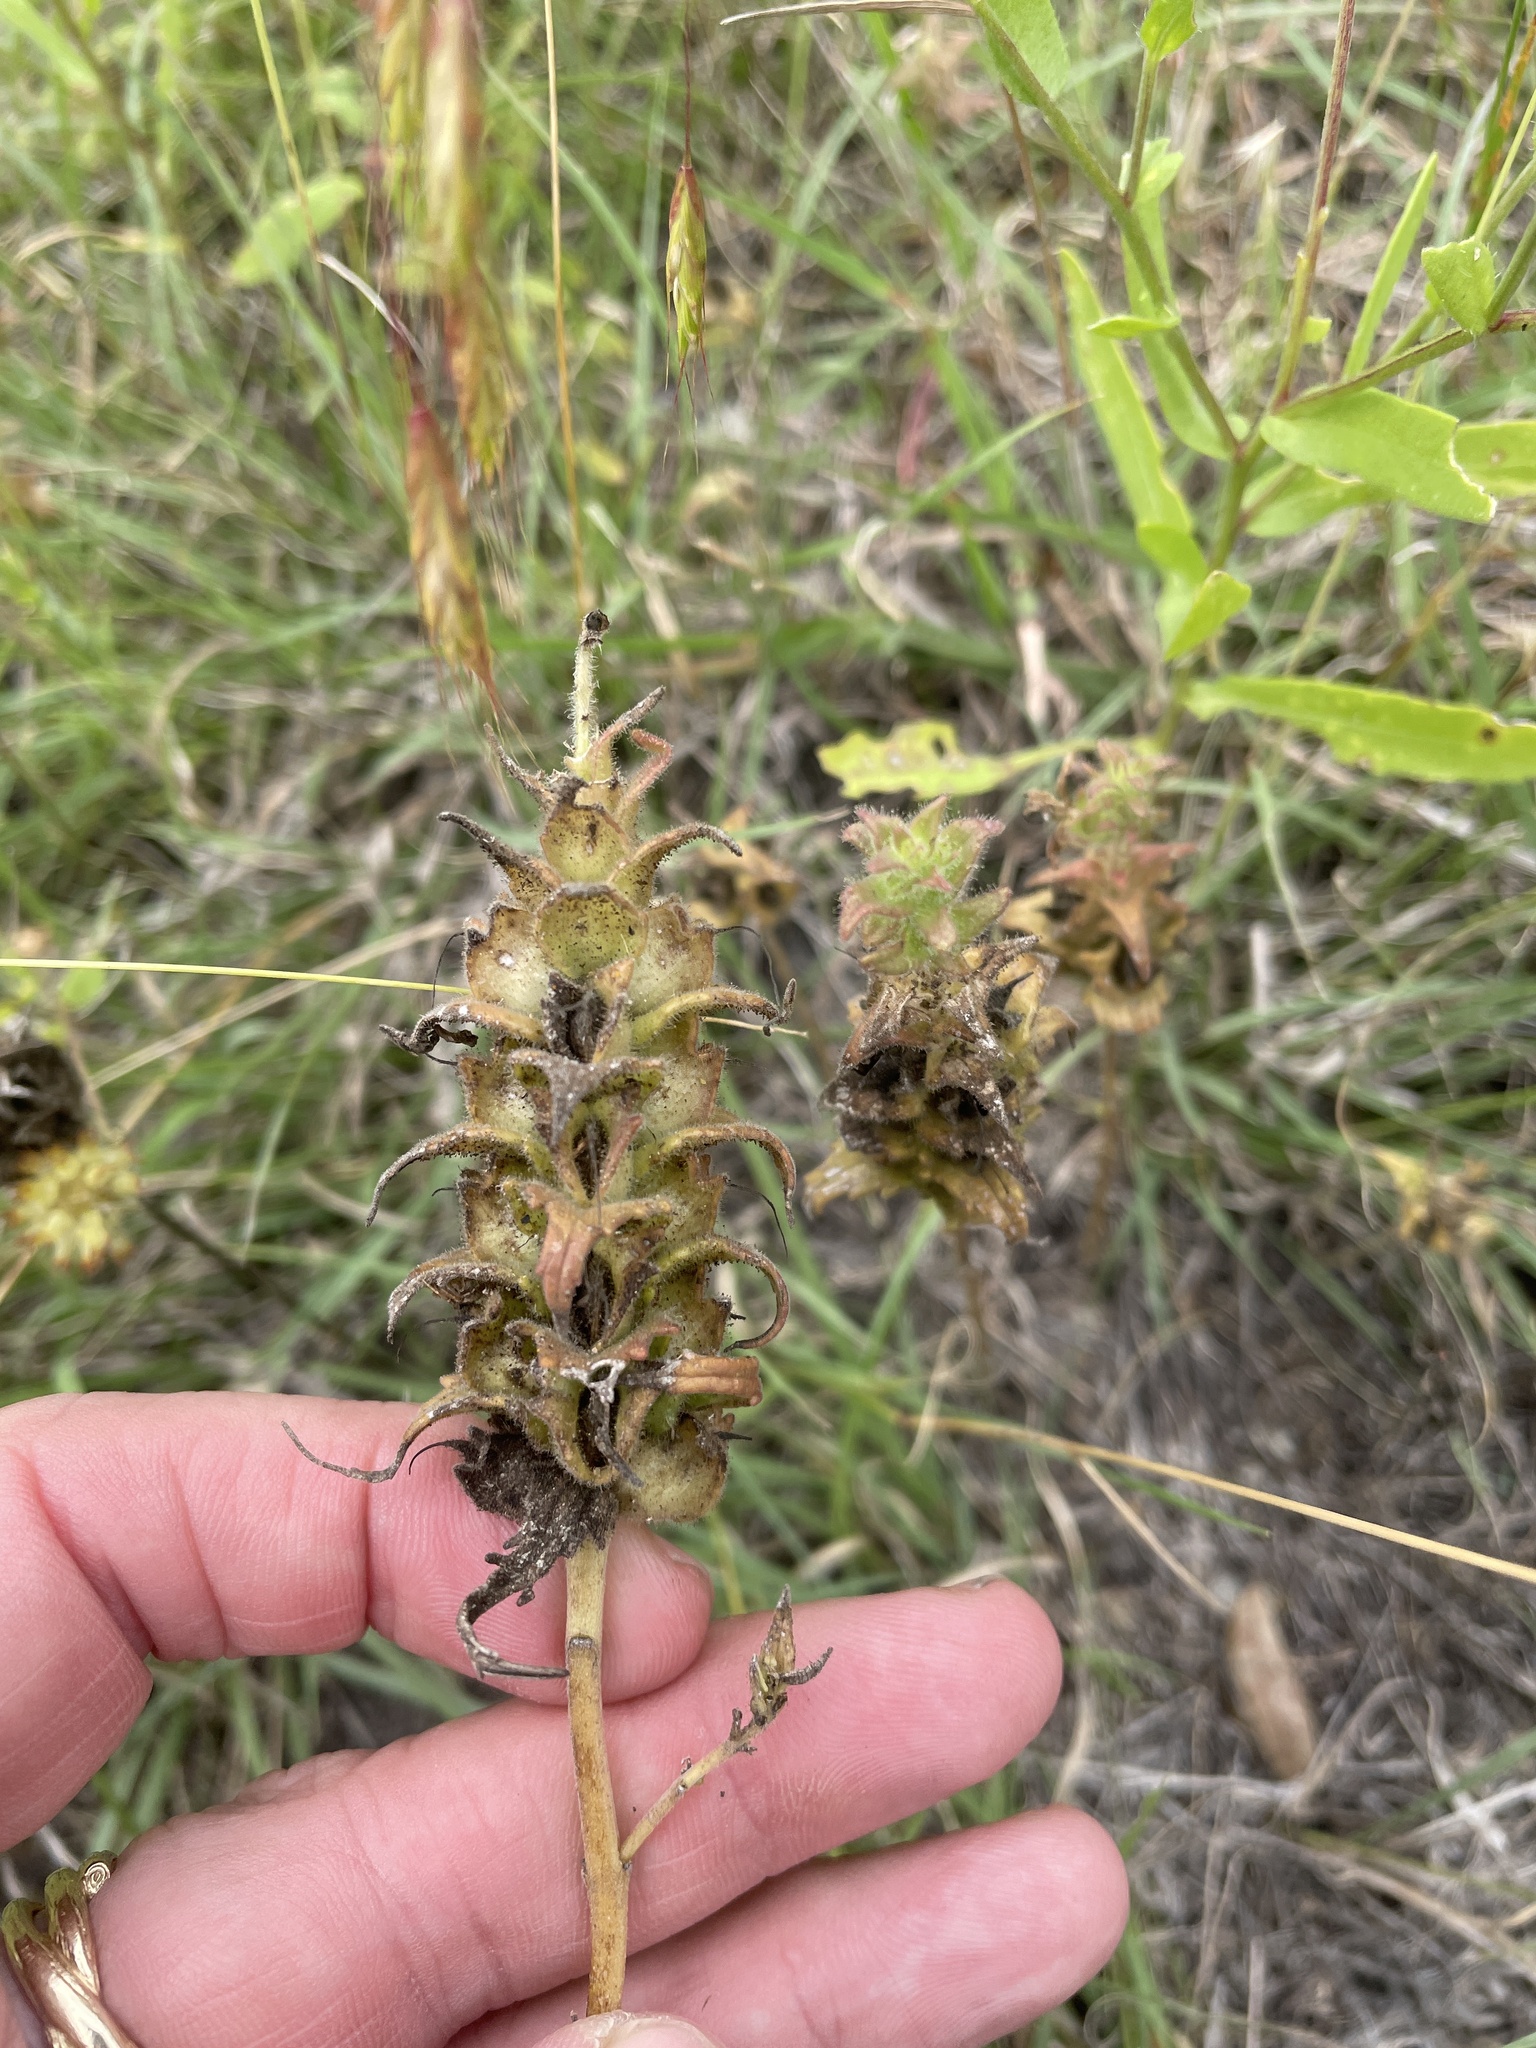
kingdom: Plantae
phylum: Tracheophyta
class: Magnoliopsida
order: Lamiales
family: Orobanchaceae
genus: Bellardia
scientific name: Bellardia trixago
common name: Mediterranean lineseed
